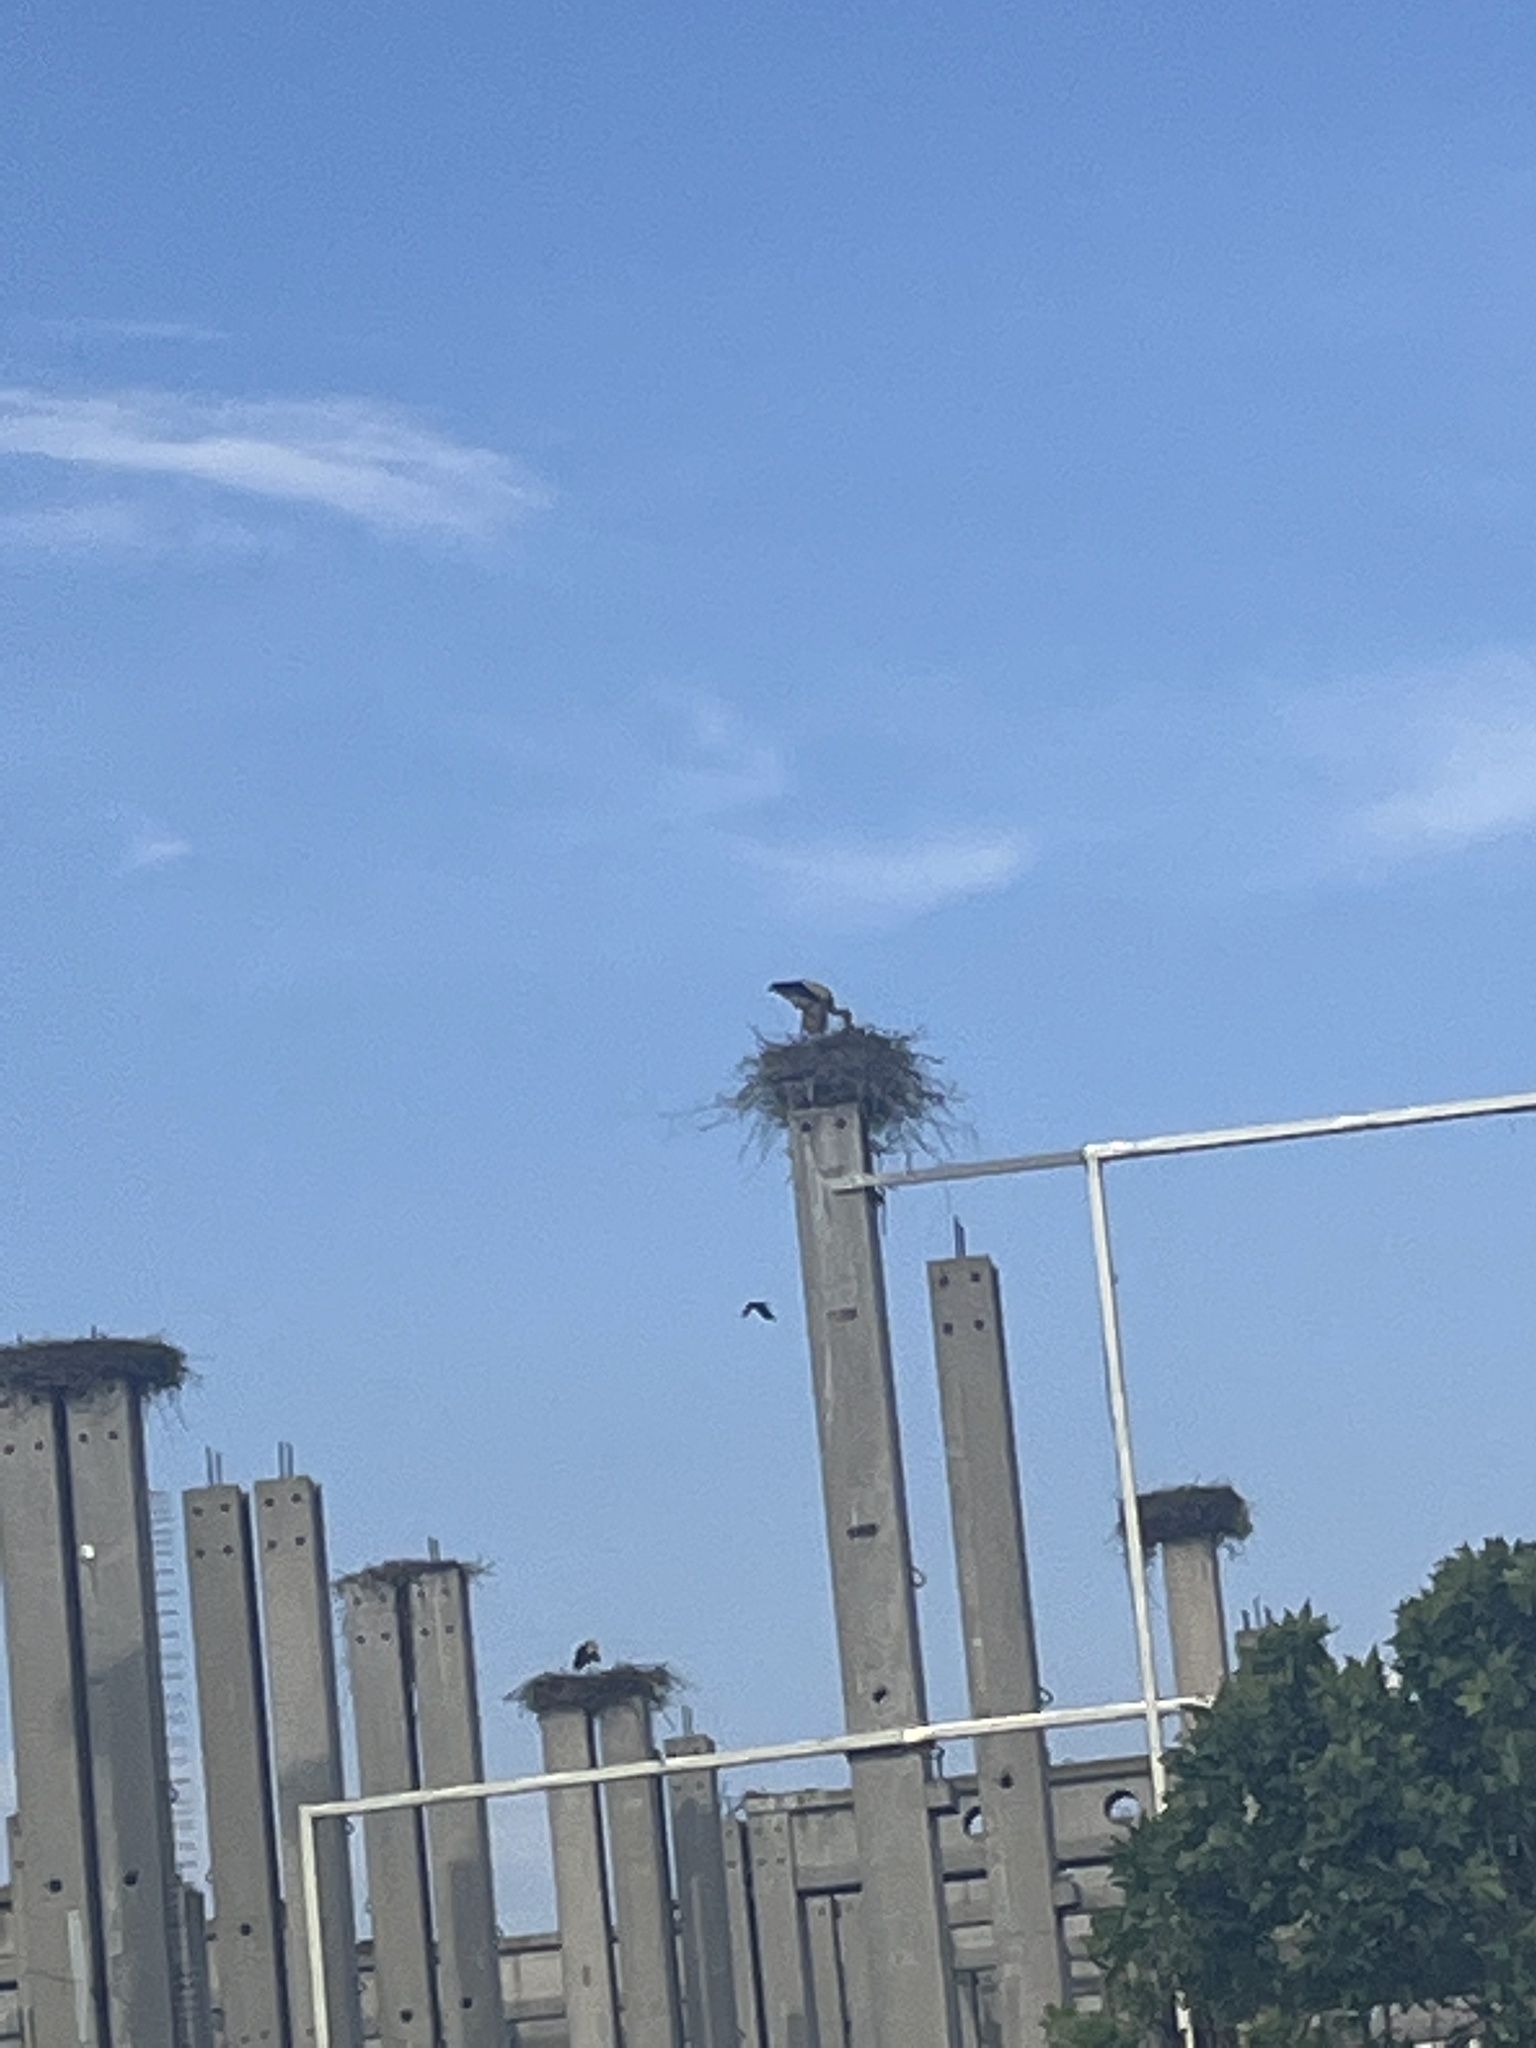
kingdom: Animalia
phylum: Chordata
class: Aves
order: Ciconiiformes
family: Ciconiidae
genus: Ciconia
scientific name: Ciconia ciconia
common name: White stork
